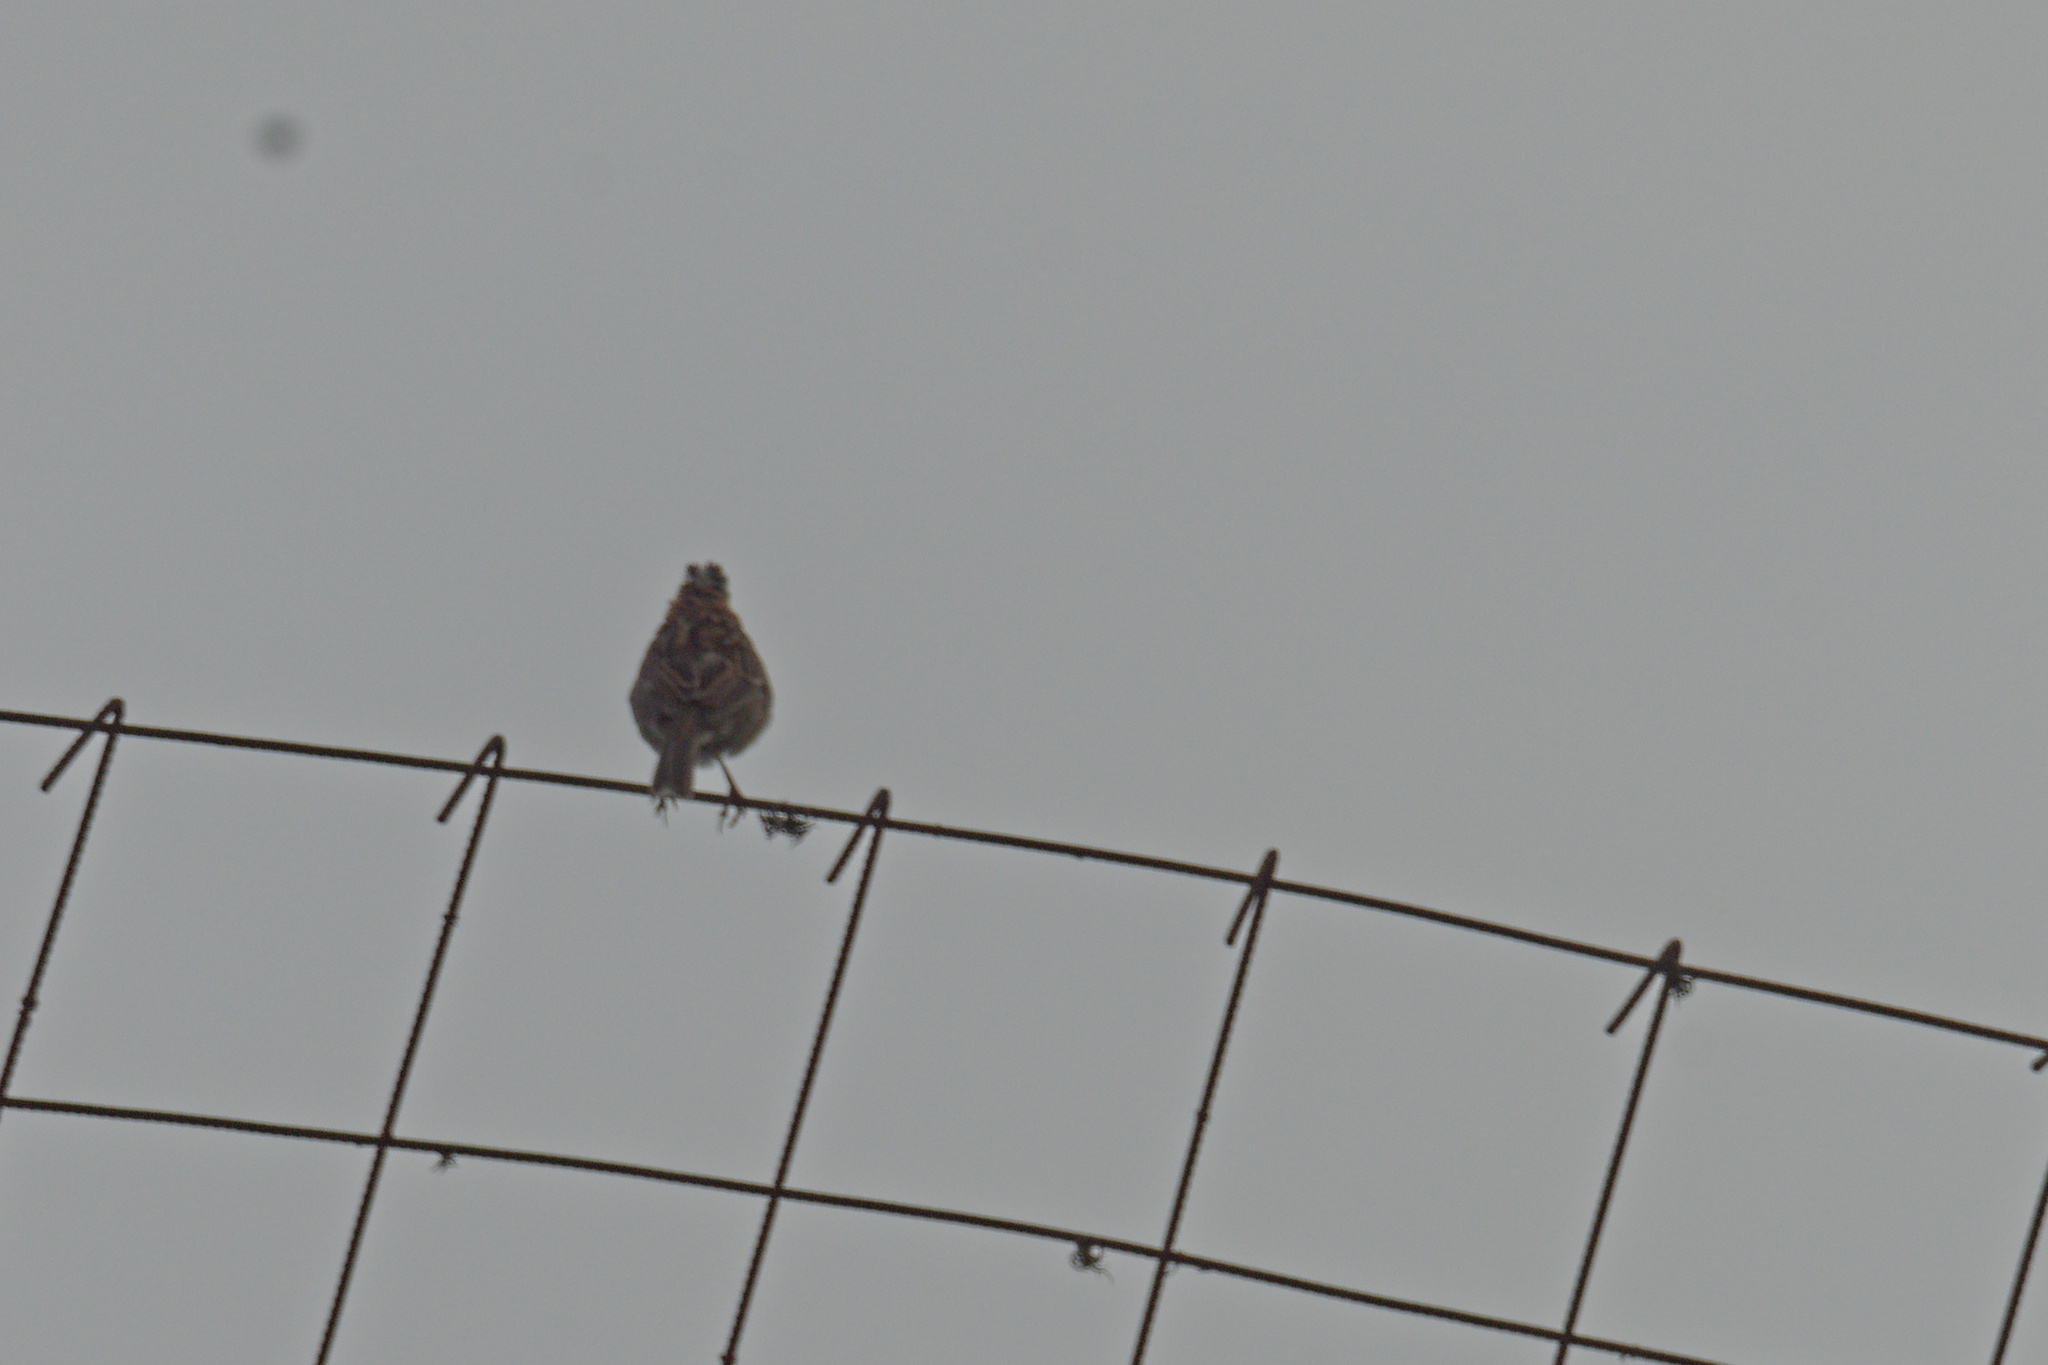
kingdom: Animalia
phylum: Chordata
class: Aves
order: Passeriformes
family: Passerellidae
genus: Zonotrichia
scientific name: Zonotrichia capensis
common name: Rufous-collared sparrow
